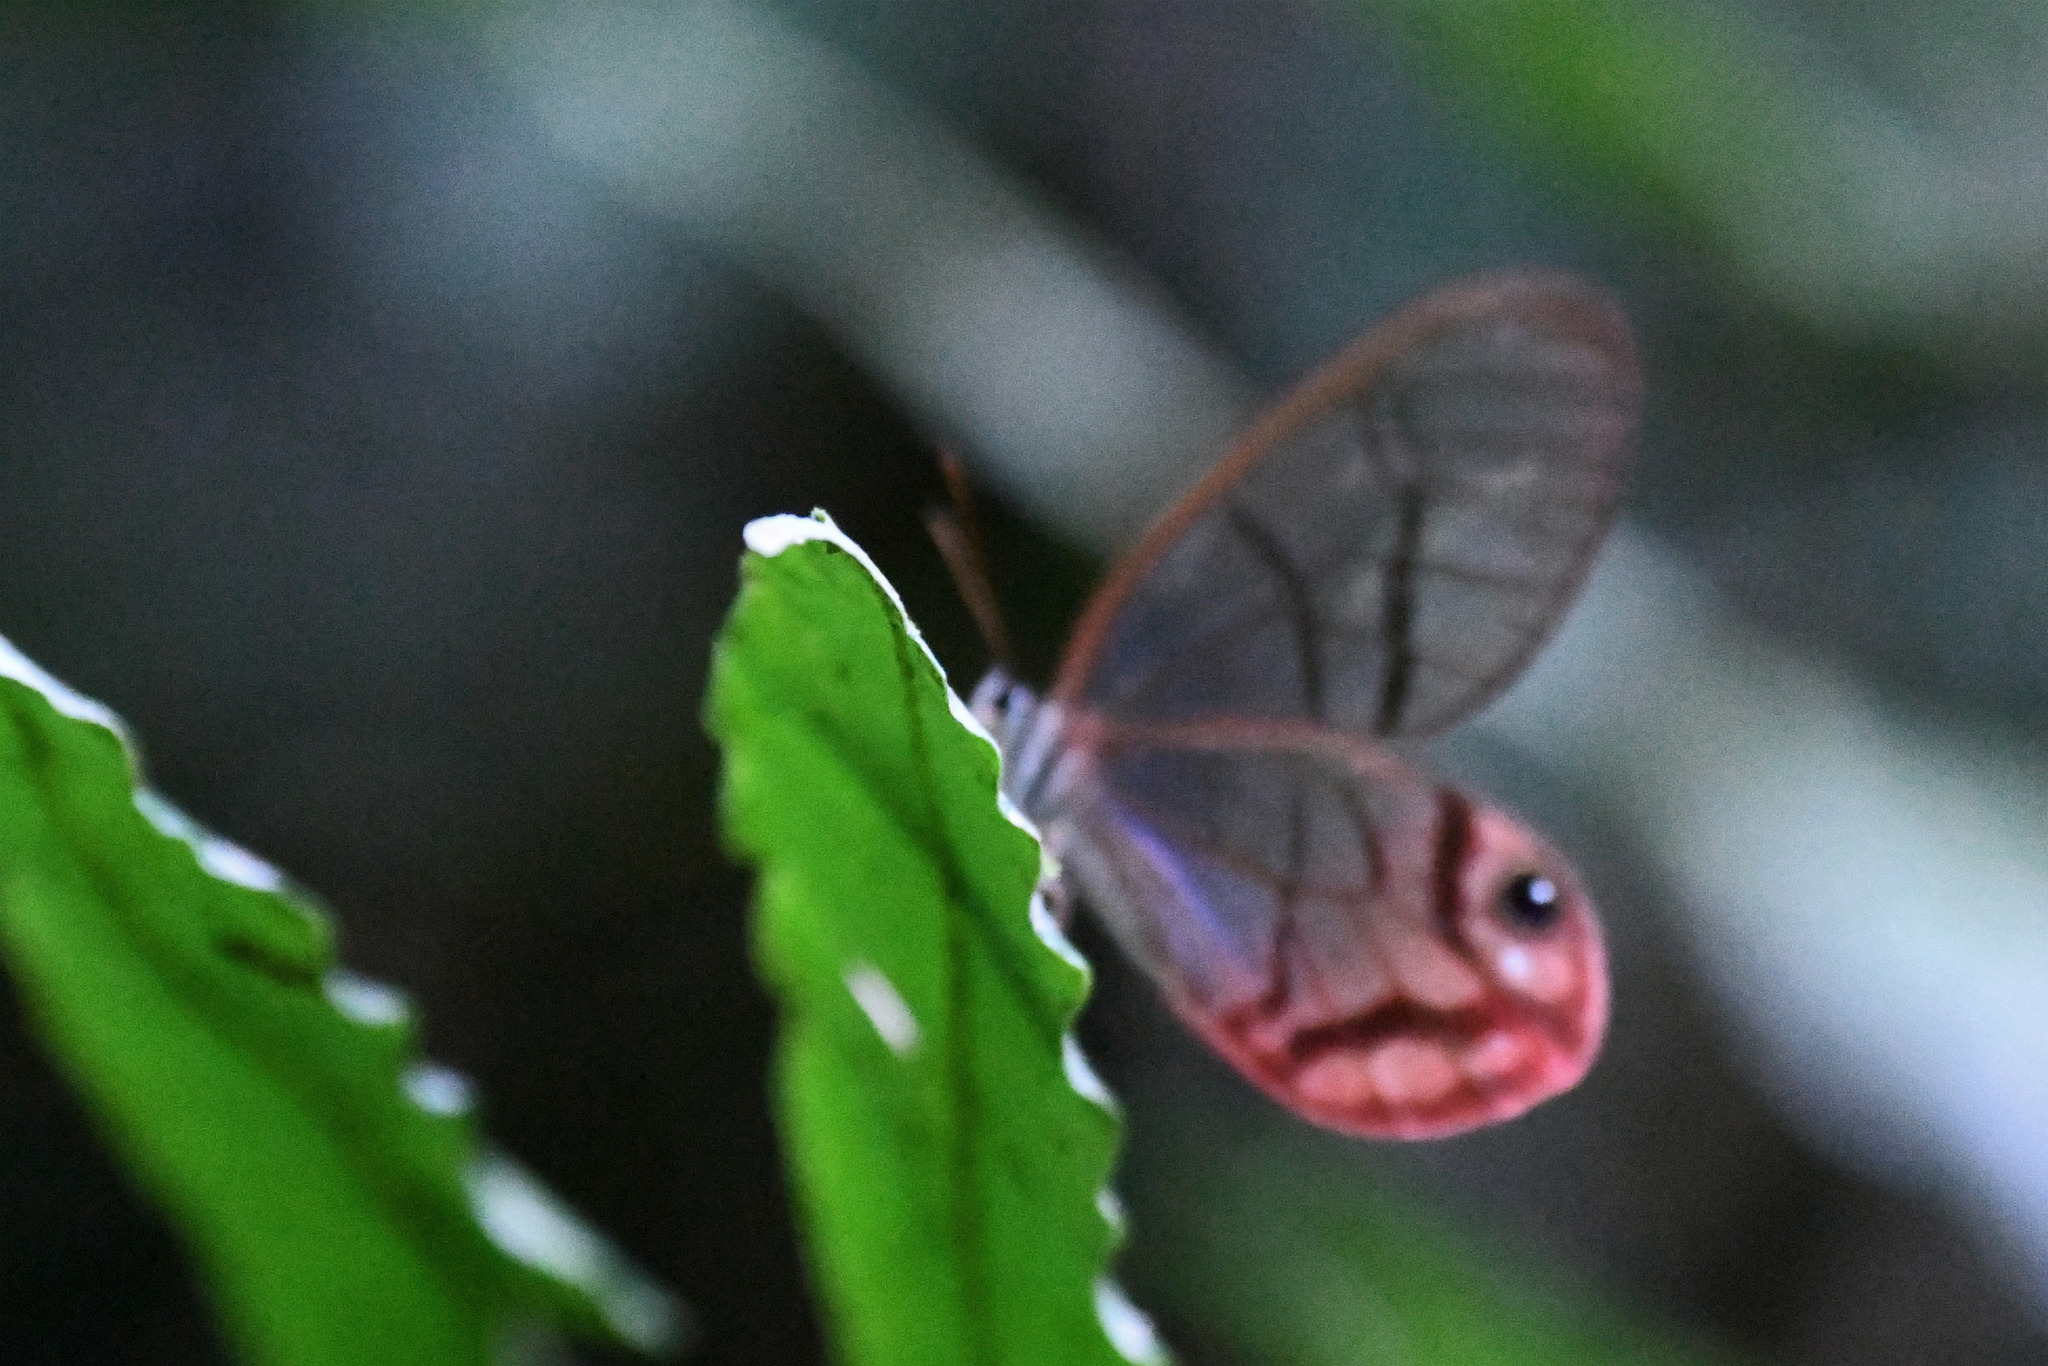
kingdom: Animalia
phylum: Arthropoda
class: Insecta
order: Lepidoptera
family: Nymphalidae
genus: Cithaerias
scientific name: Cithaerias pireta
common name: Rusted clearwing-satyr
